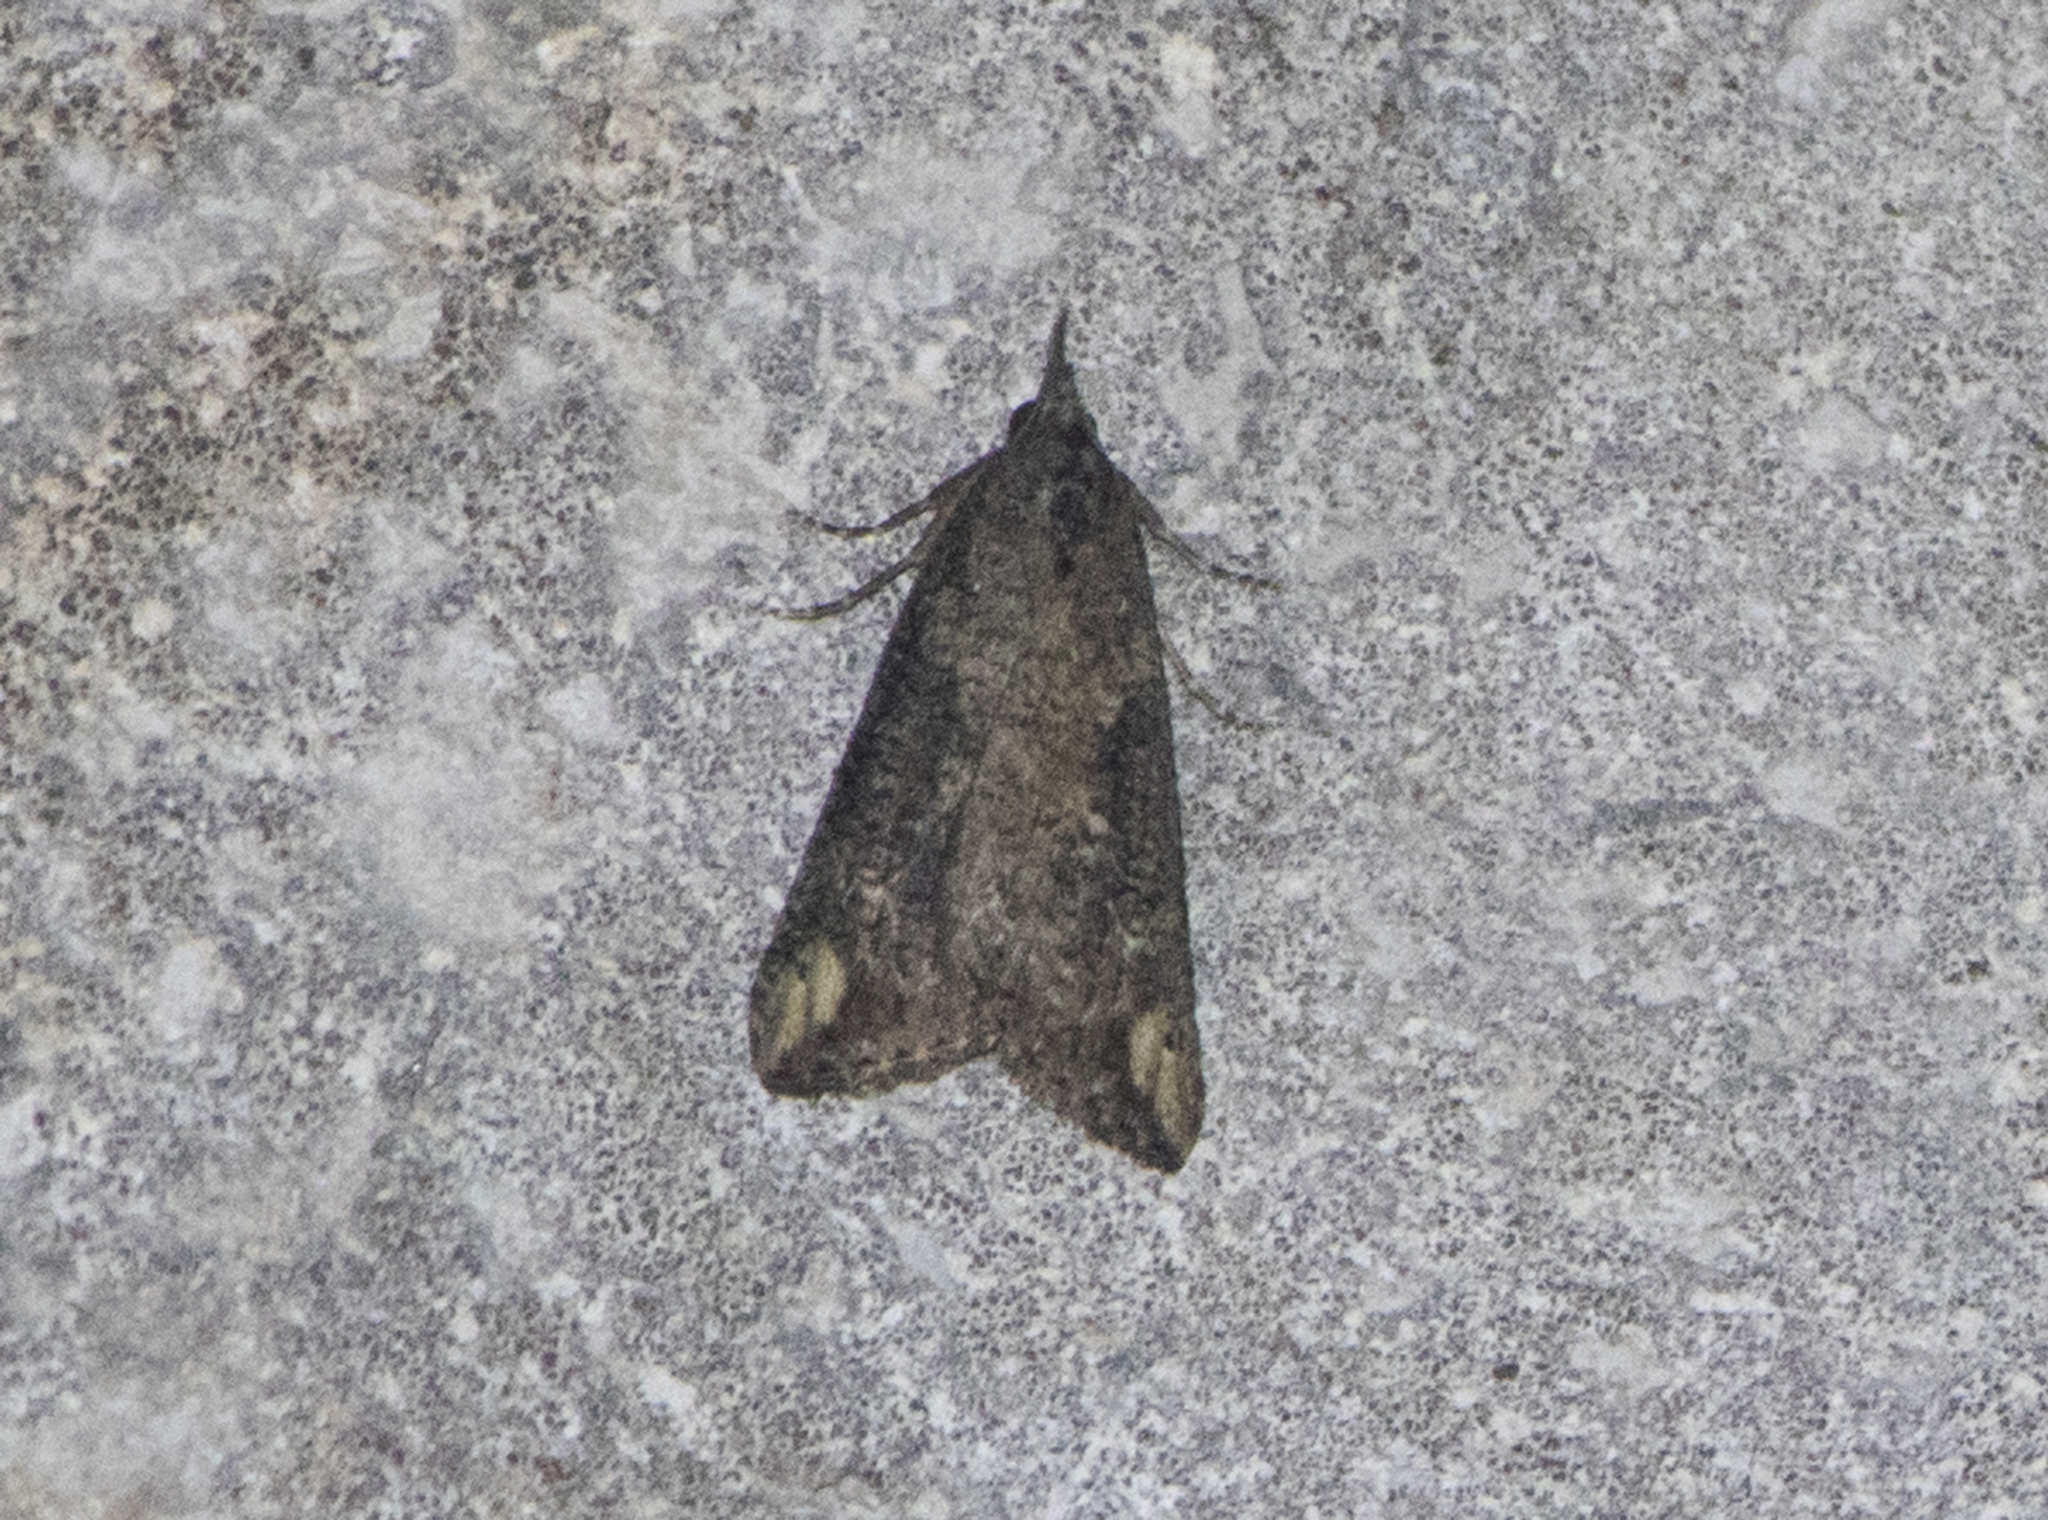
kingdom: Animalia
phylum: Arthropoda
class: Insecta
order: Lepidoptera
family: Erebidae
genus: Hypena
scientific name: Hypena obesalis
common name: Paignton snout
